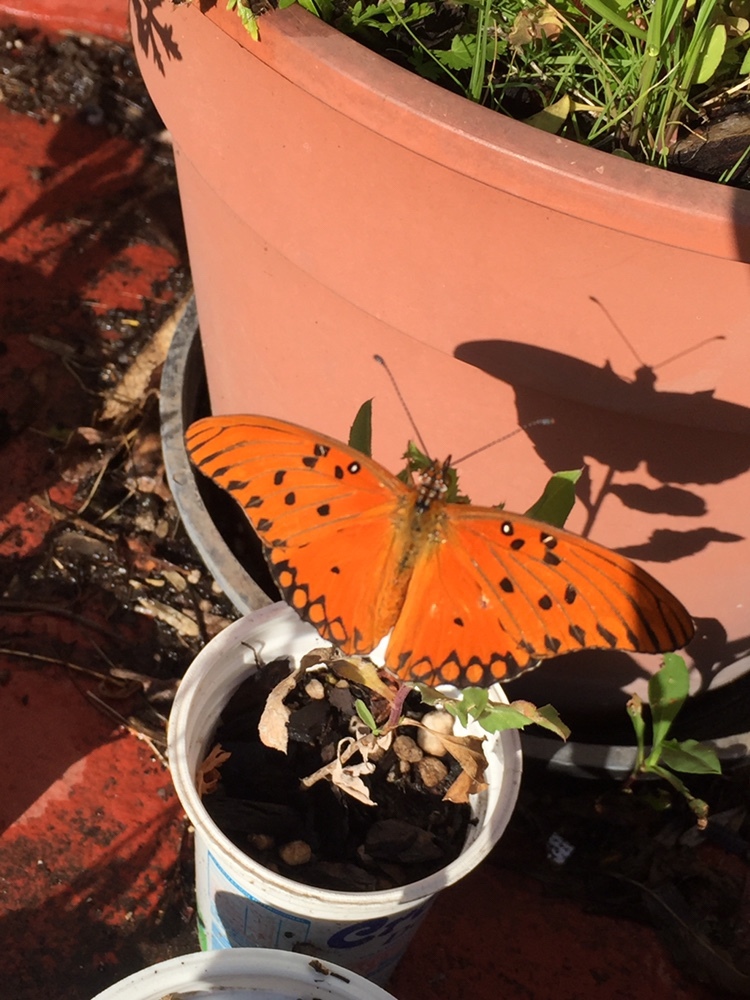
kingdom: Animalia
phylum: Arthropoda
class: Insecta
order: Lepidoptera
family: Nymphalidae
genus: Dione
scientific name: Dione vanillae
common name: Gulf fritillary
